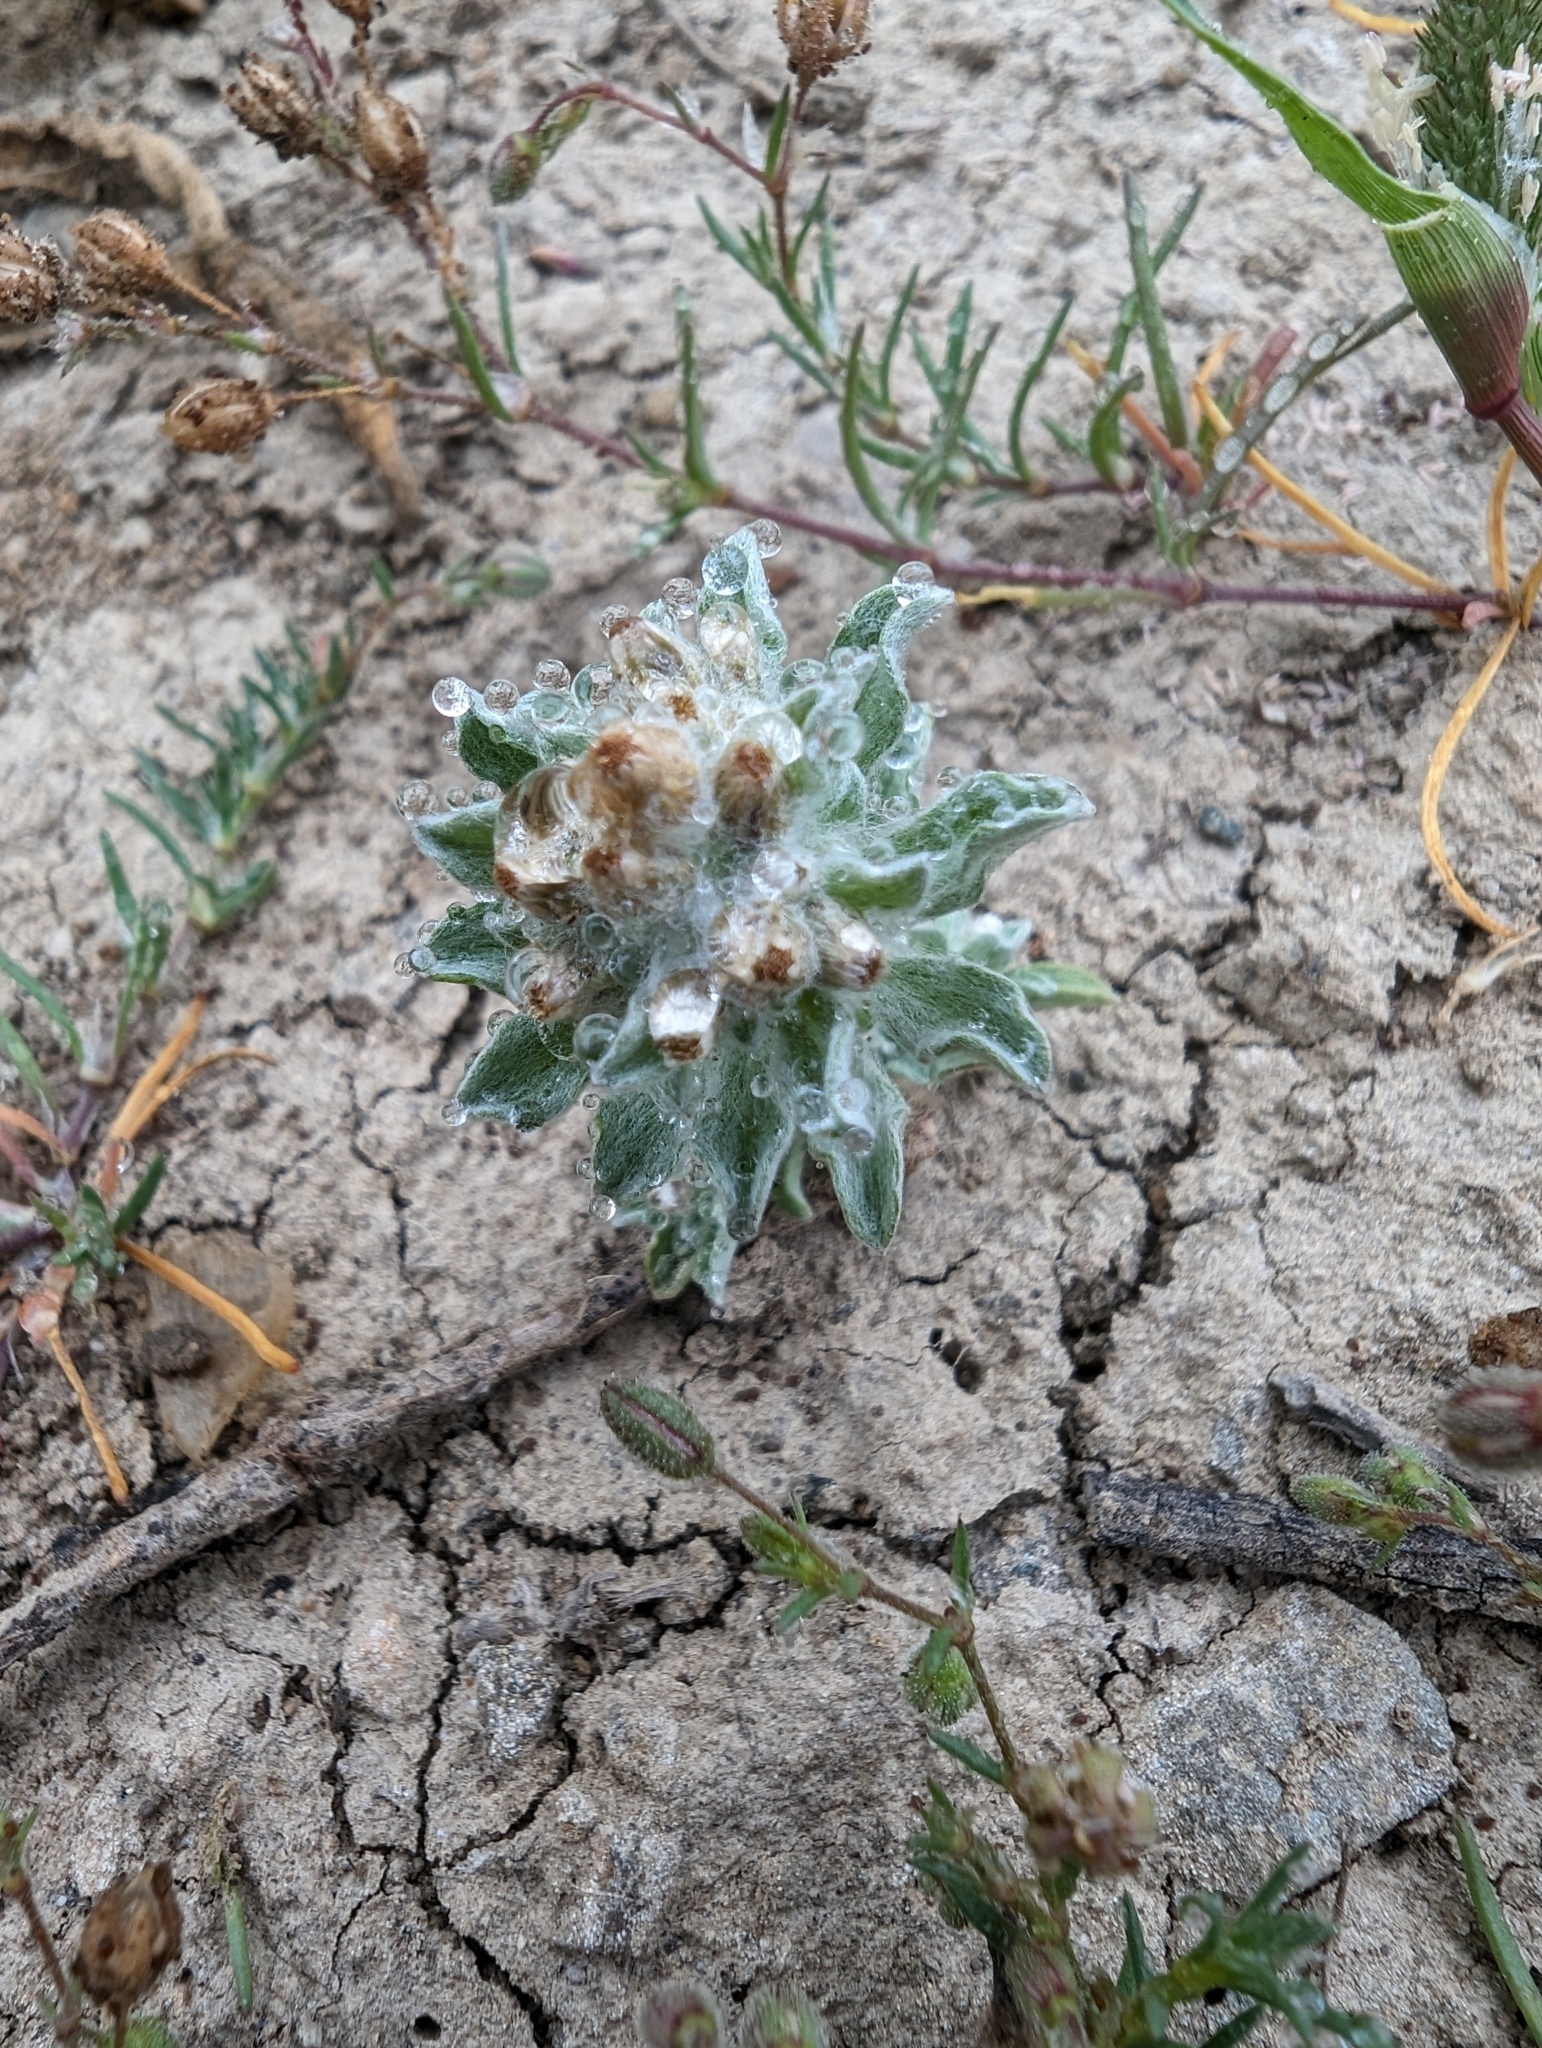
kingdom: Plantae
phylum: Tracheophyta
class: Magnoliopsida
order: Asterales
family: Asteraceae
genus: Gnaphalium
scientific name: Gnaphalium palustre
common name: Western marsh cudweed
